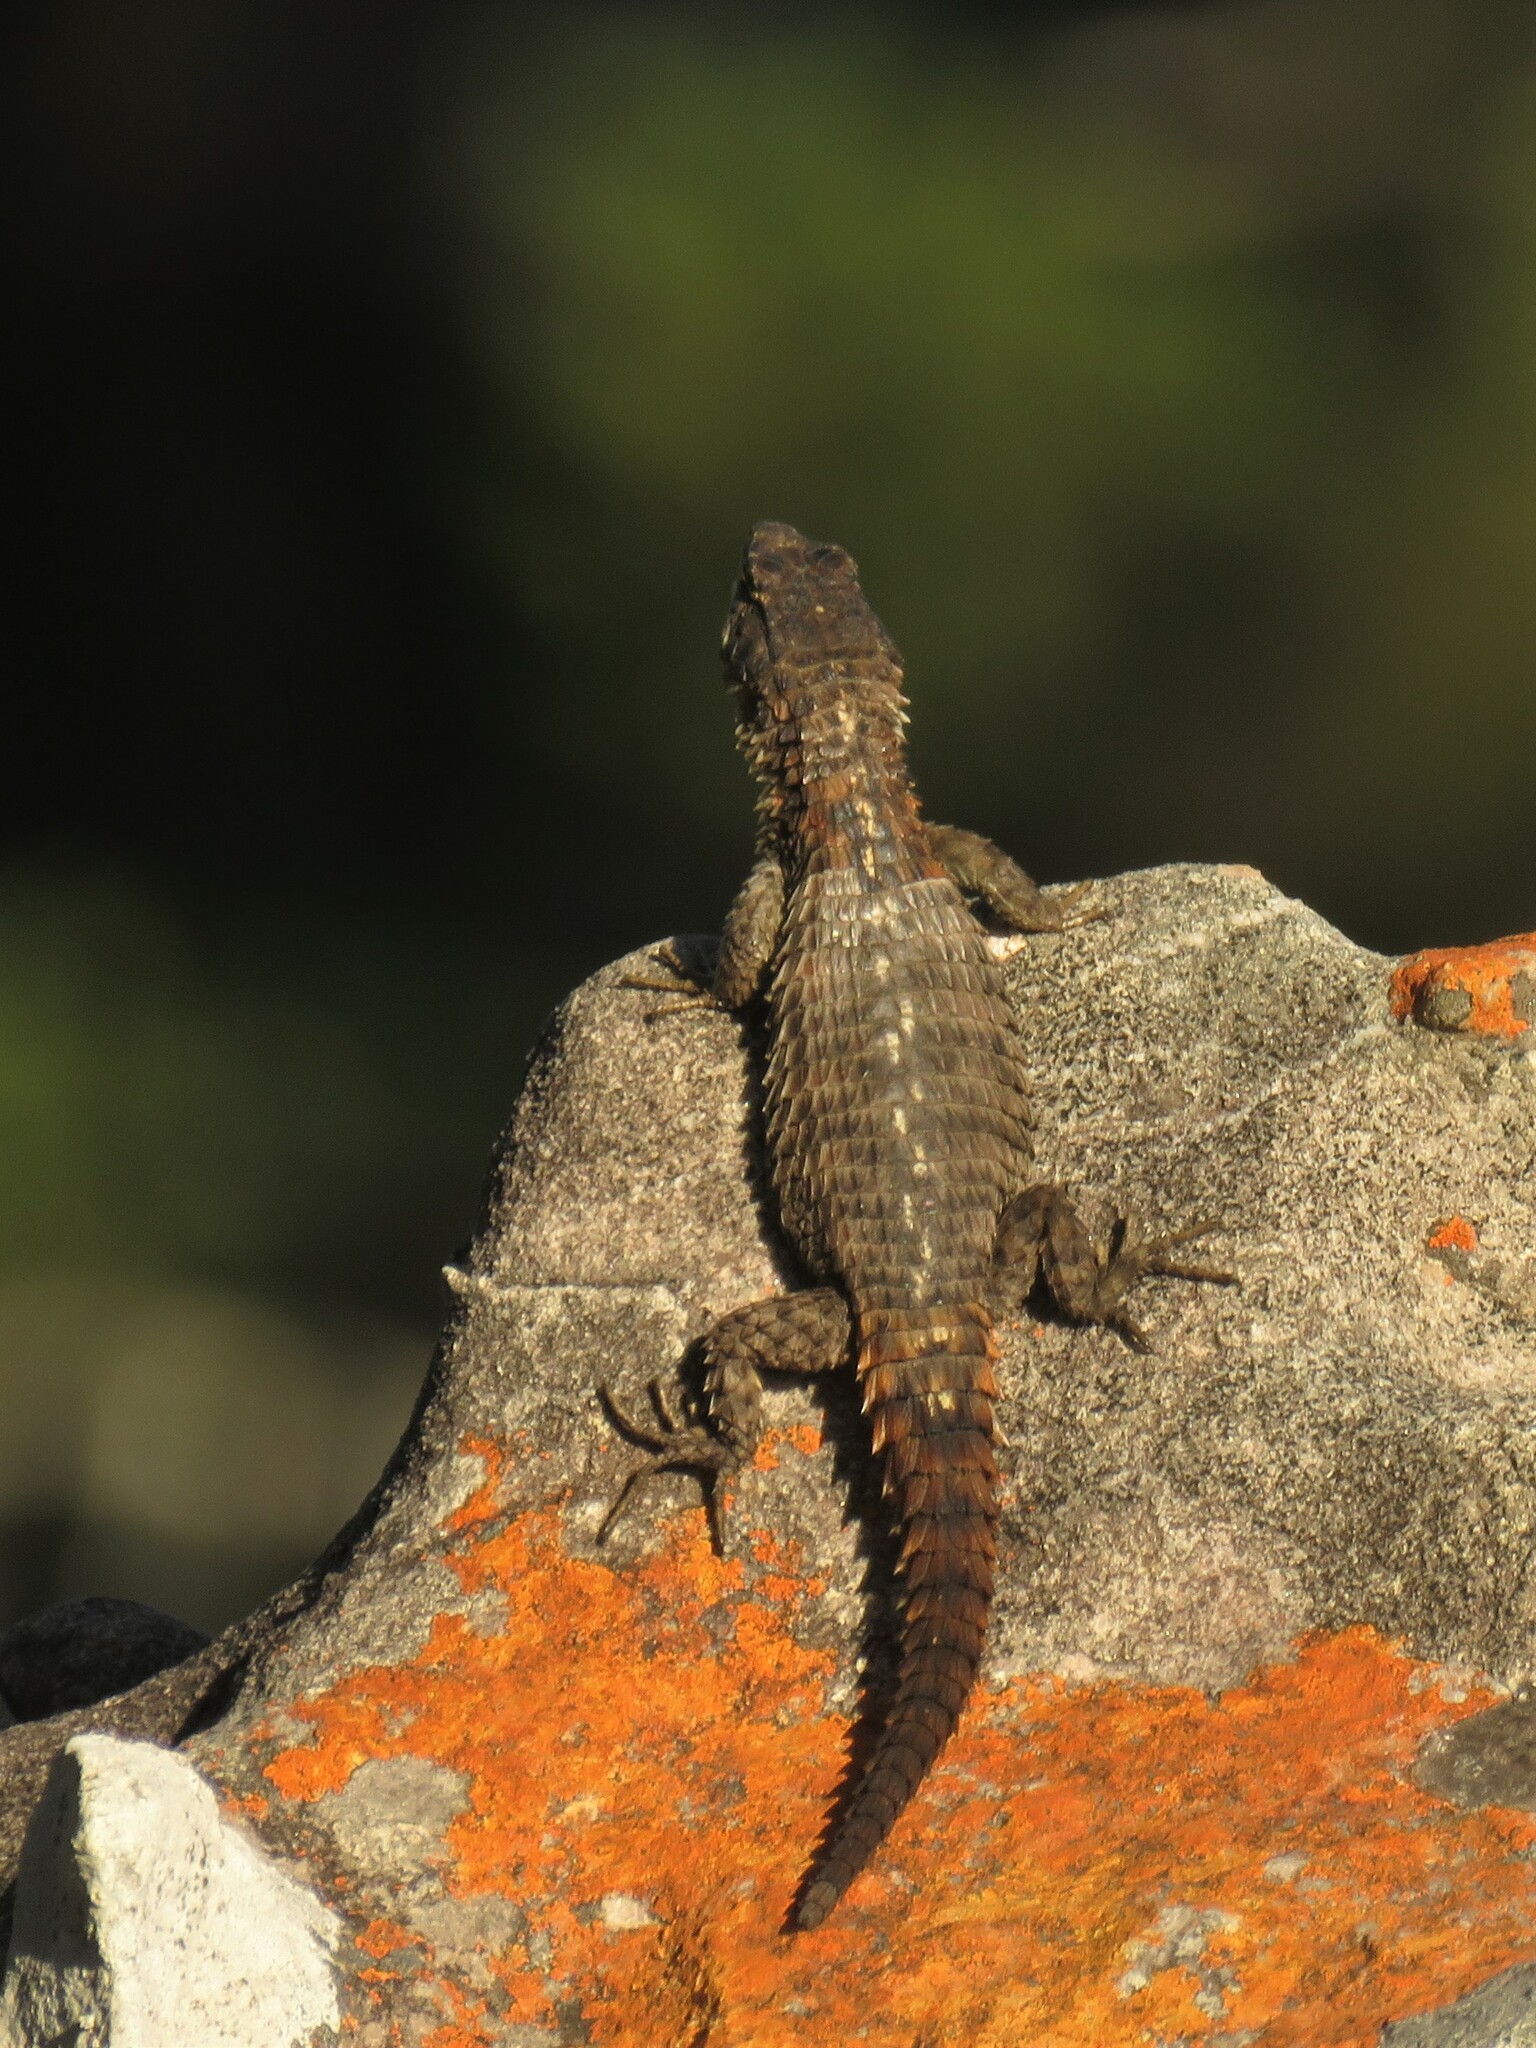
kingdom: Animalia
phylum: Chordata
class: Squamata
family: Cordylidae
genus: Cordylus
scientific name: Cordylus cordylus
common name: Cape girdled lizard
